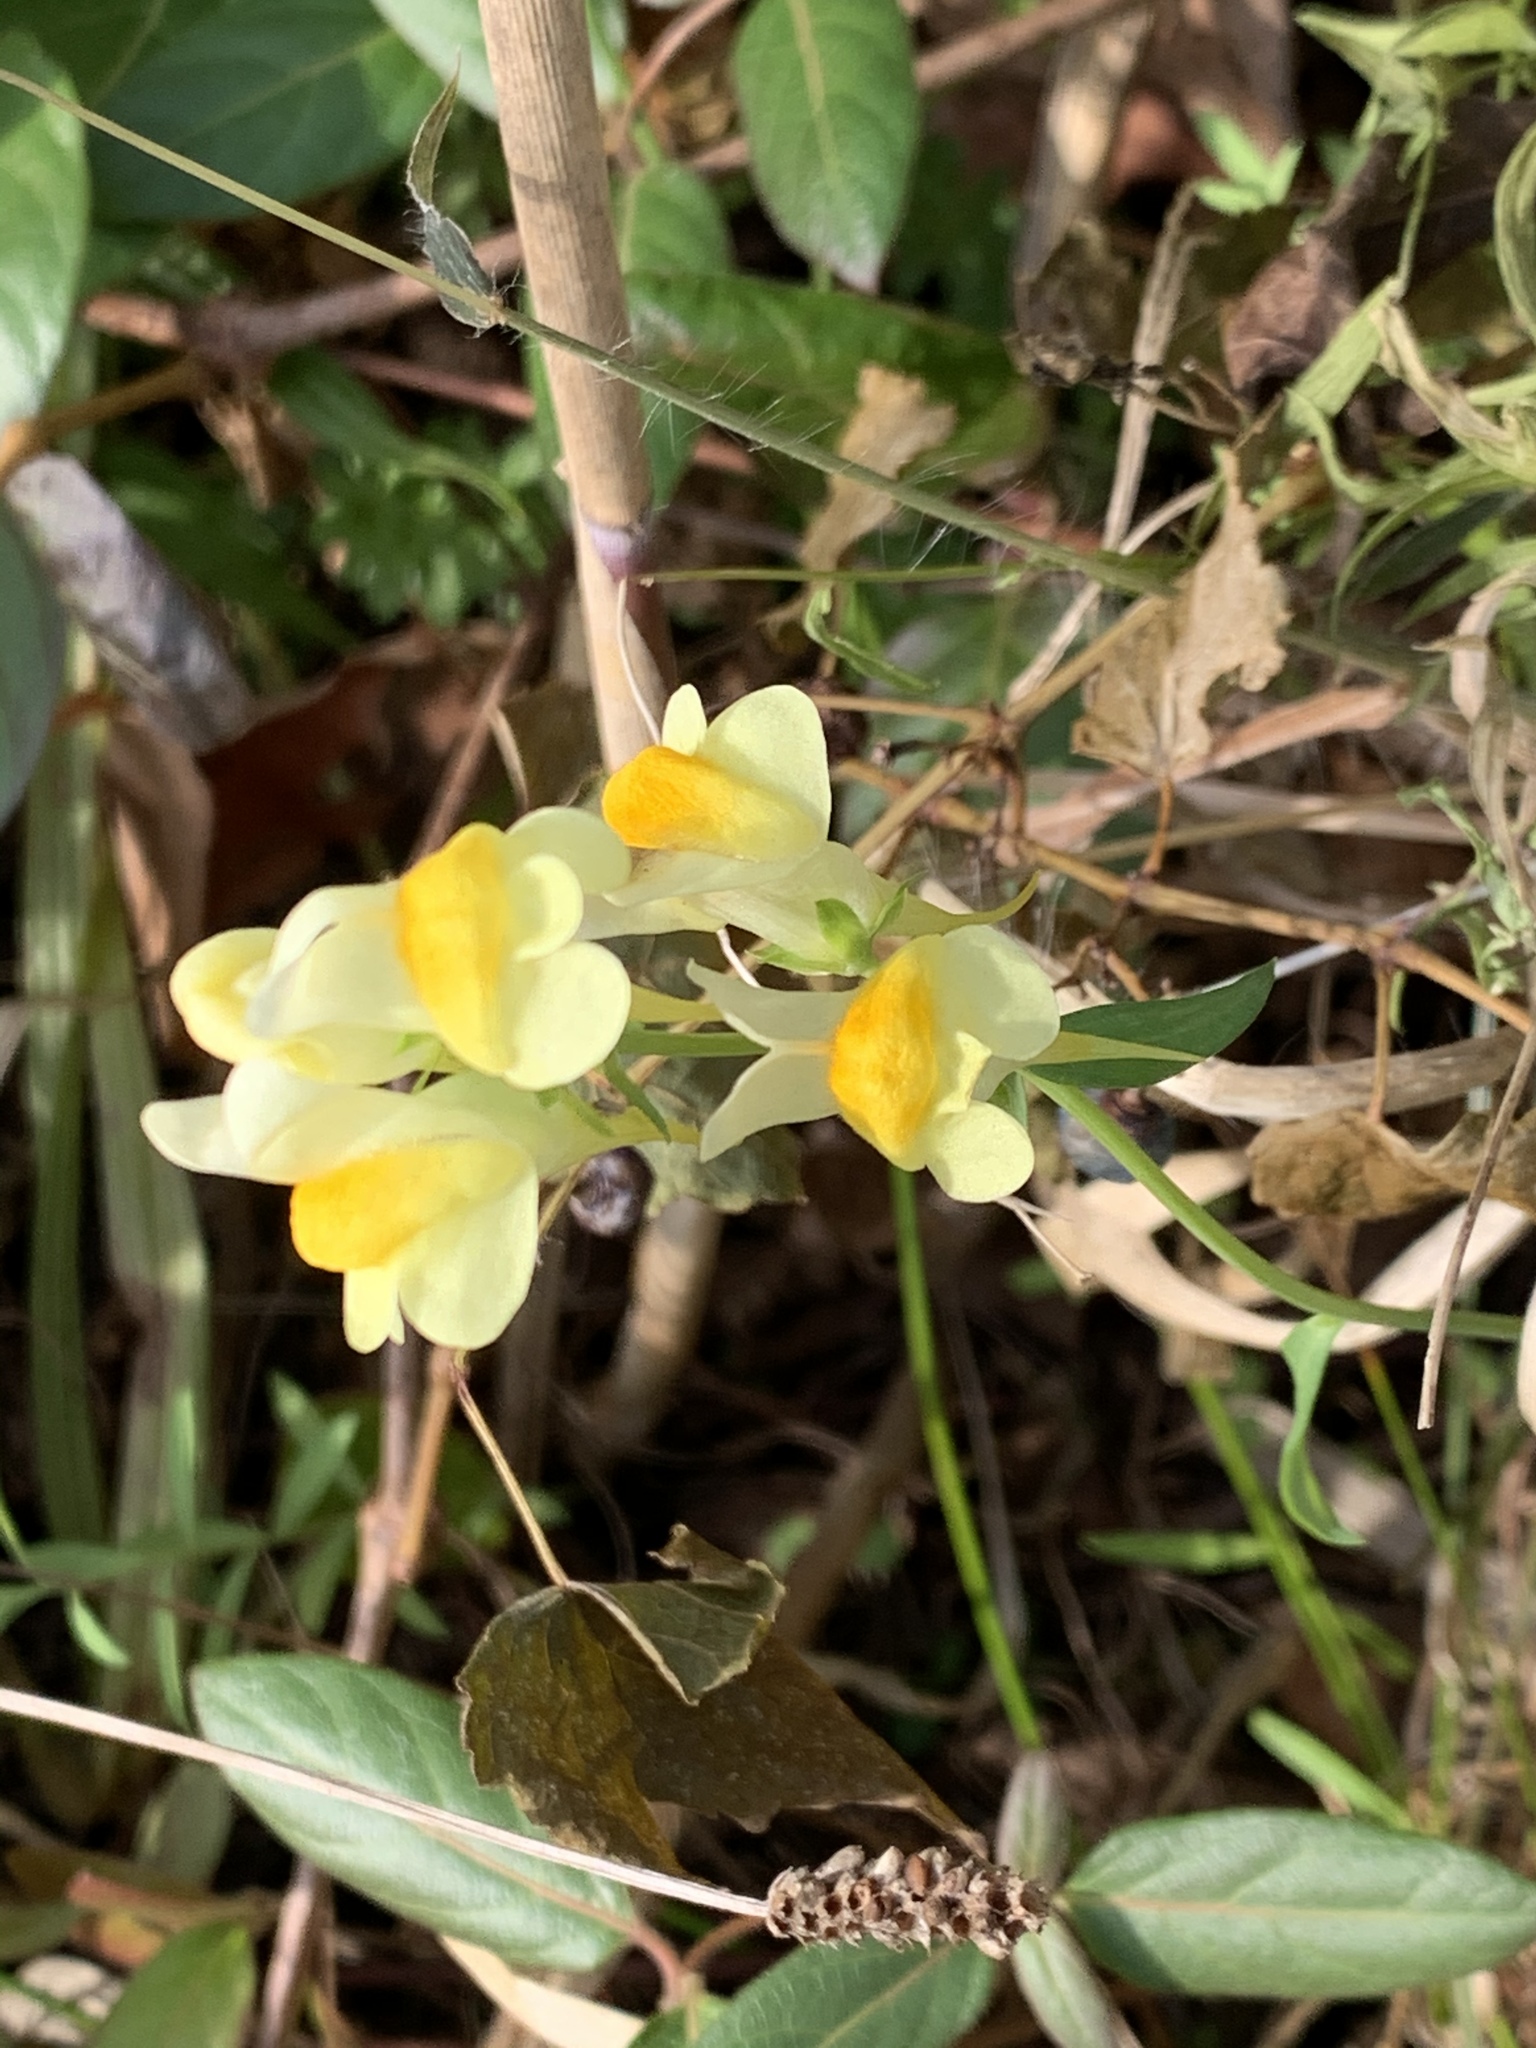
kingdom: Plantae
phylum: Tracheophyta
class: Magnoliopsida
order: Lamiales
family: Plantaginaceae
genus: Linaria
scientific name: Linaria vulgaris
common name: Butter and eggs
